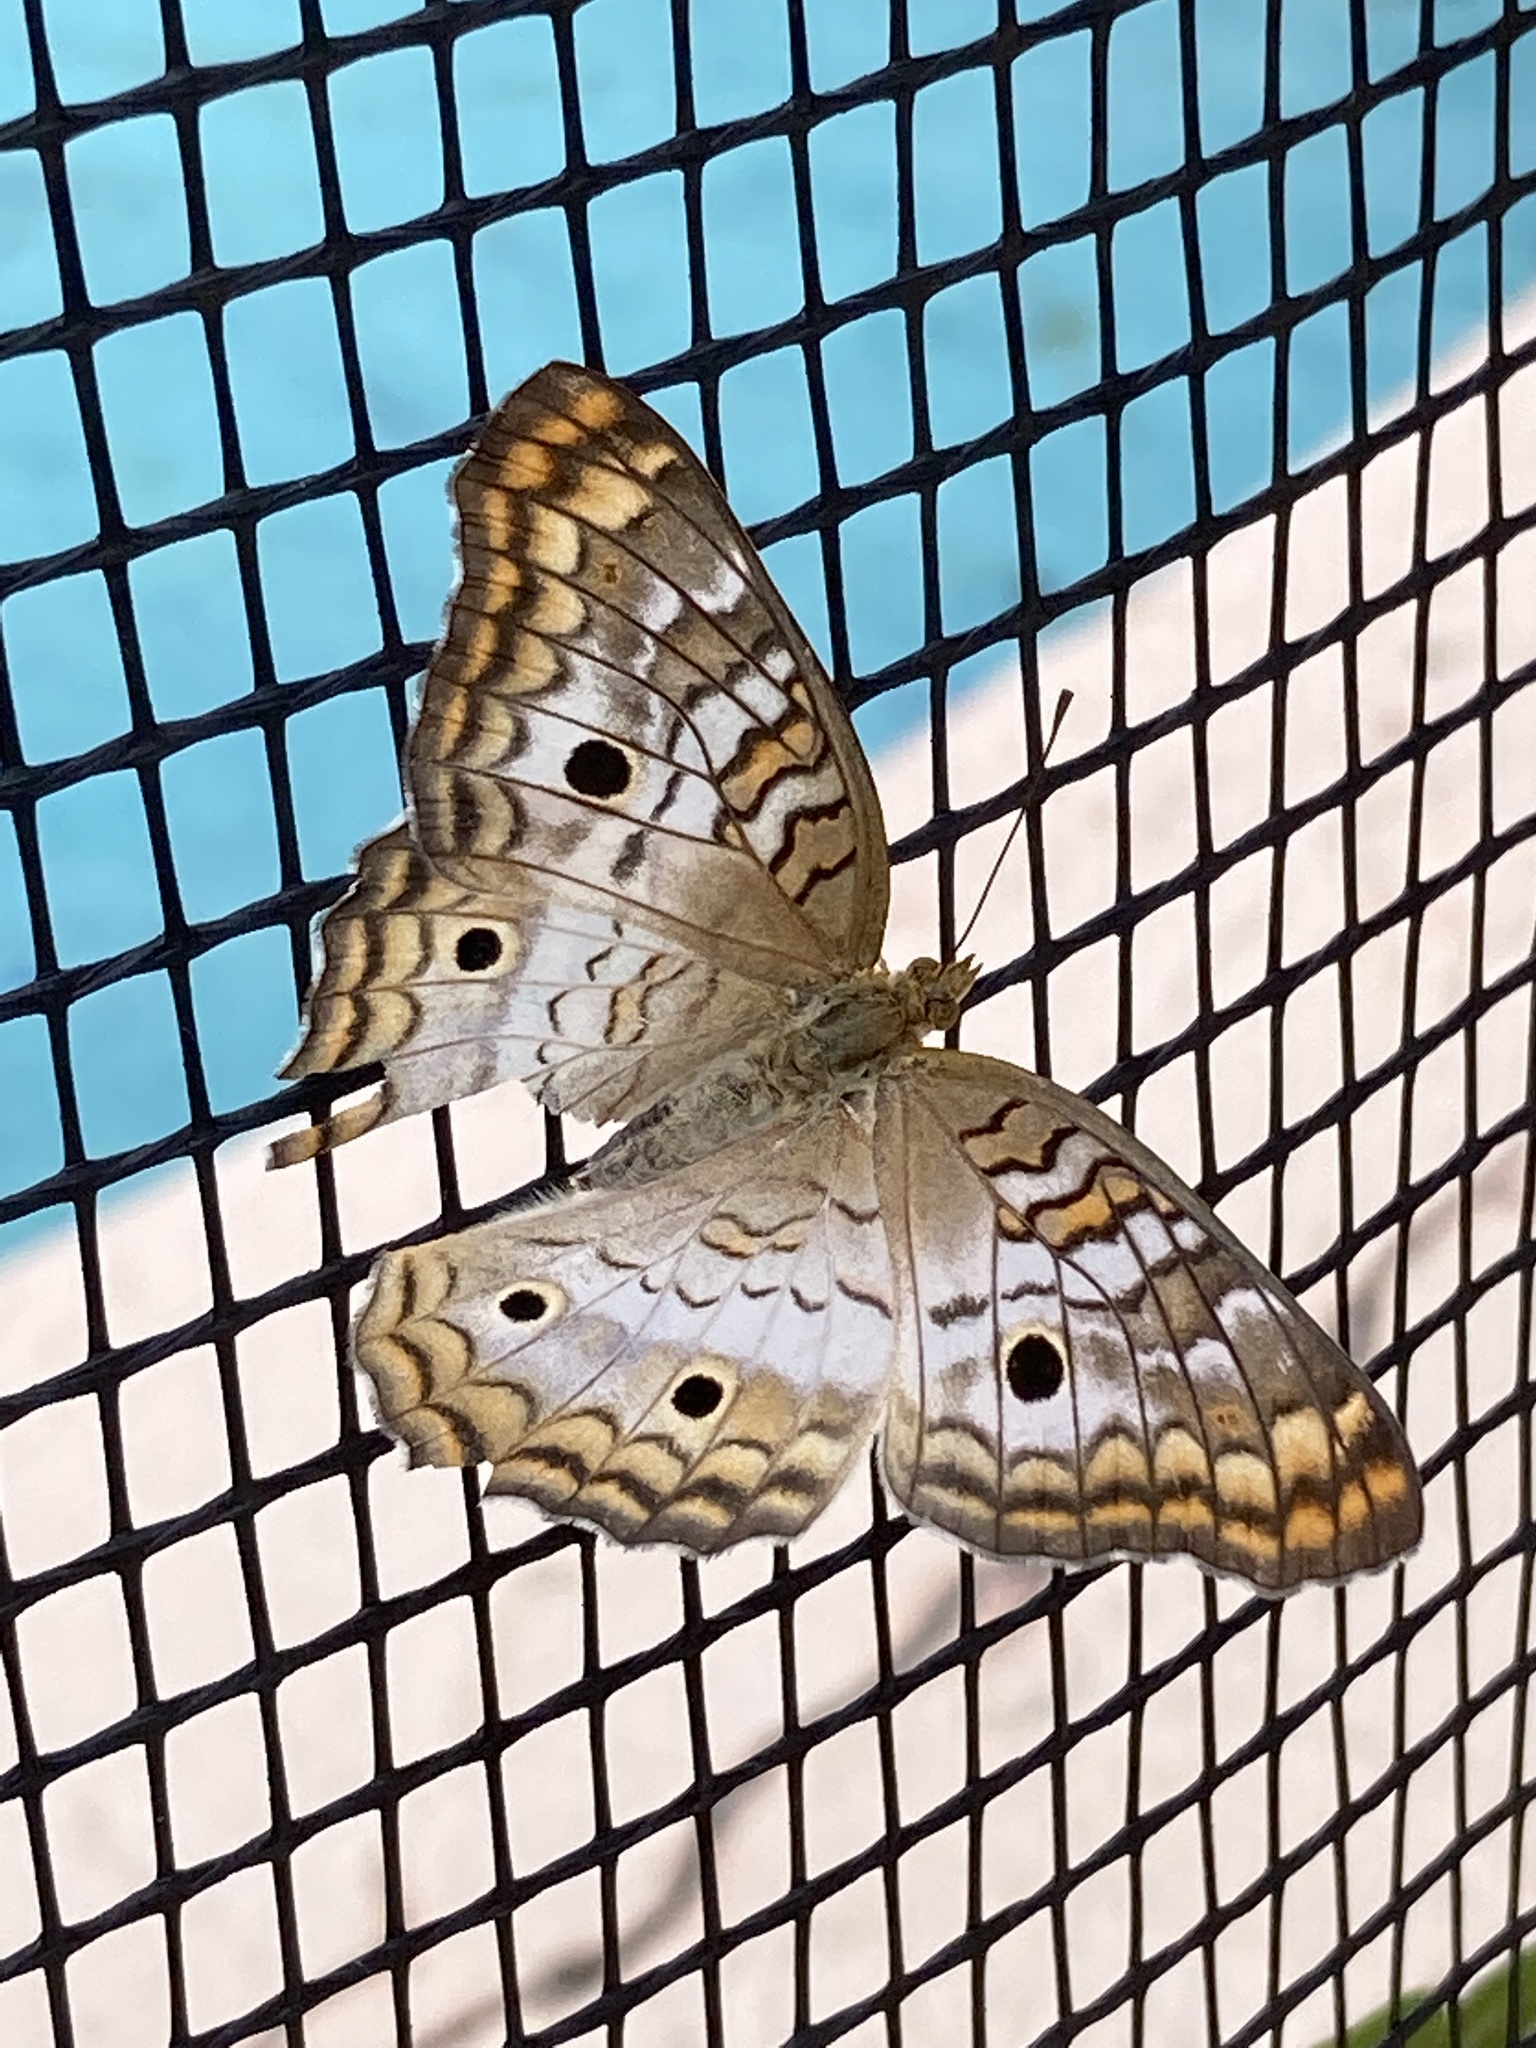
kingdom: Animalia
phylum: Arthropoda
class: Insecta
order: Lepidoptera
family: Nymphalidae
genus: Anartia
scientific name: Anartia jatrophae
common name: White peacock
